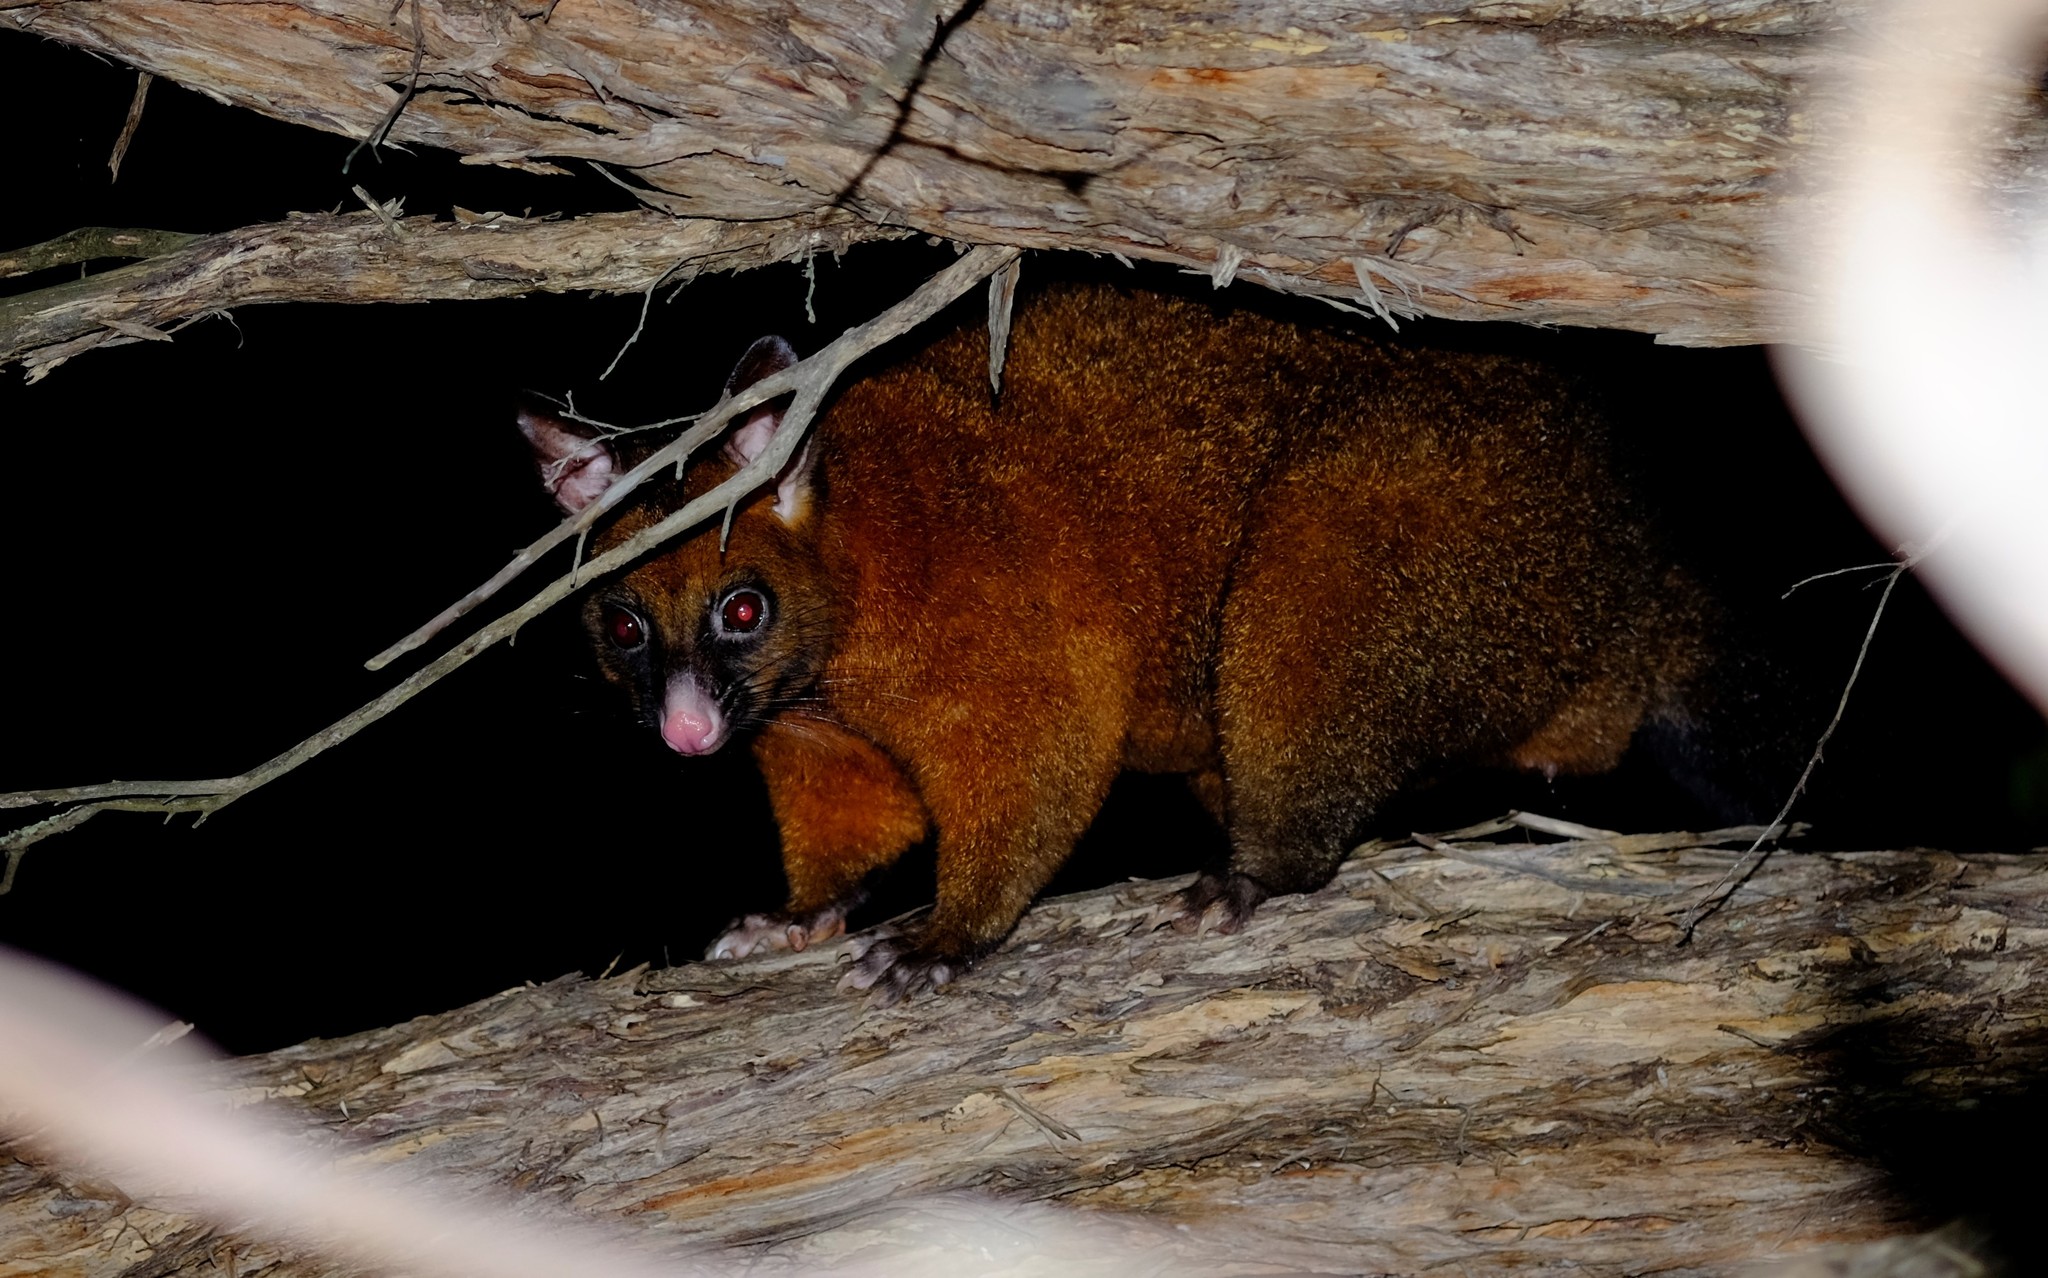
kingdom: Animalia
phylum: Chordata
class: Mammalia
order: Diprotodontia
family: Phalangeridae
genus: Trichosurus
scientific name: Trichosurus vulpecula
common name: Common brushtail
